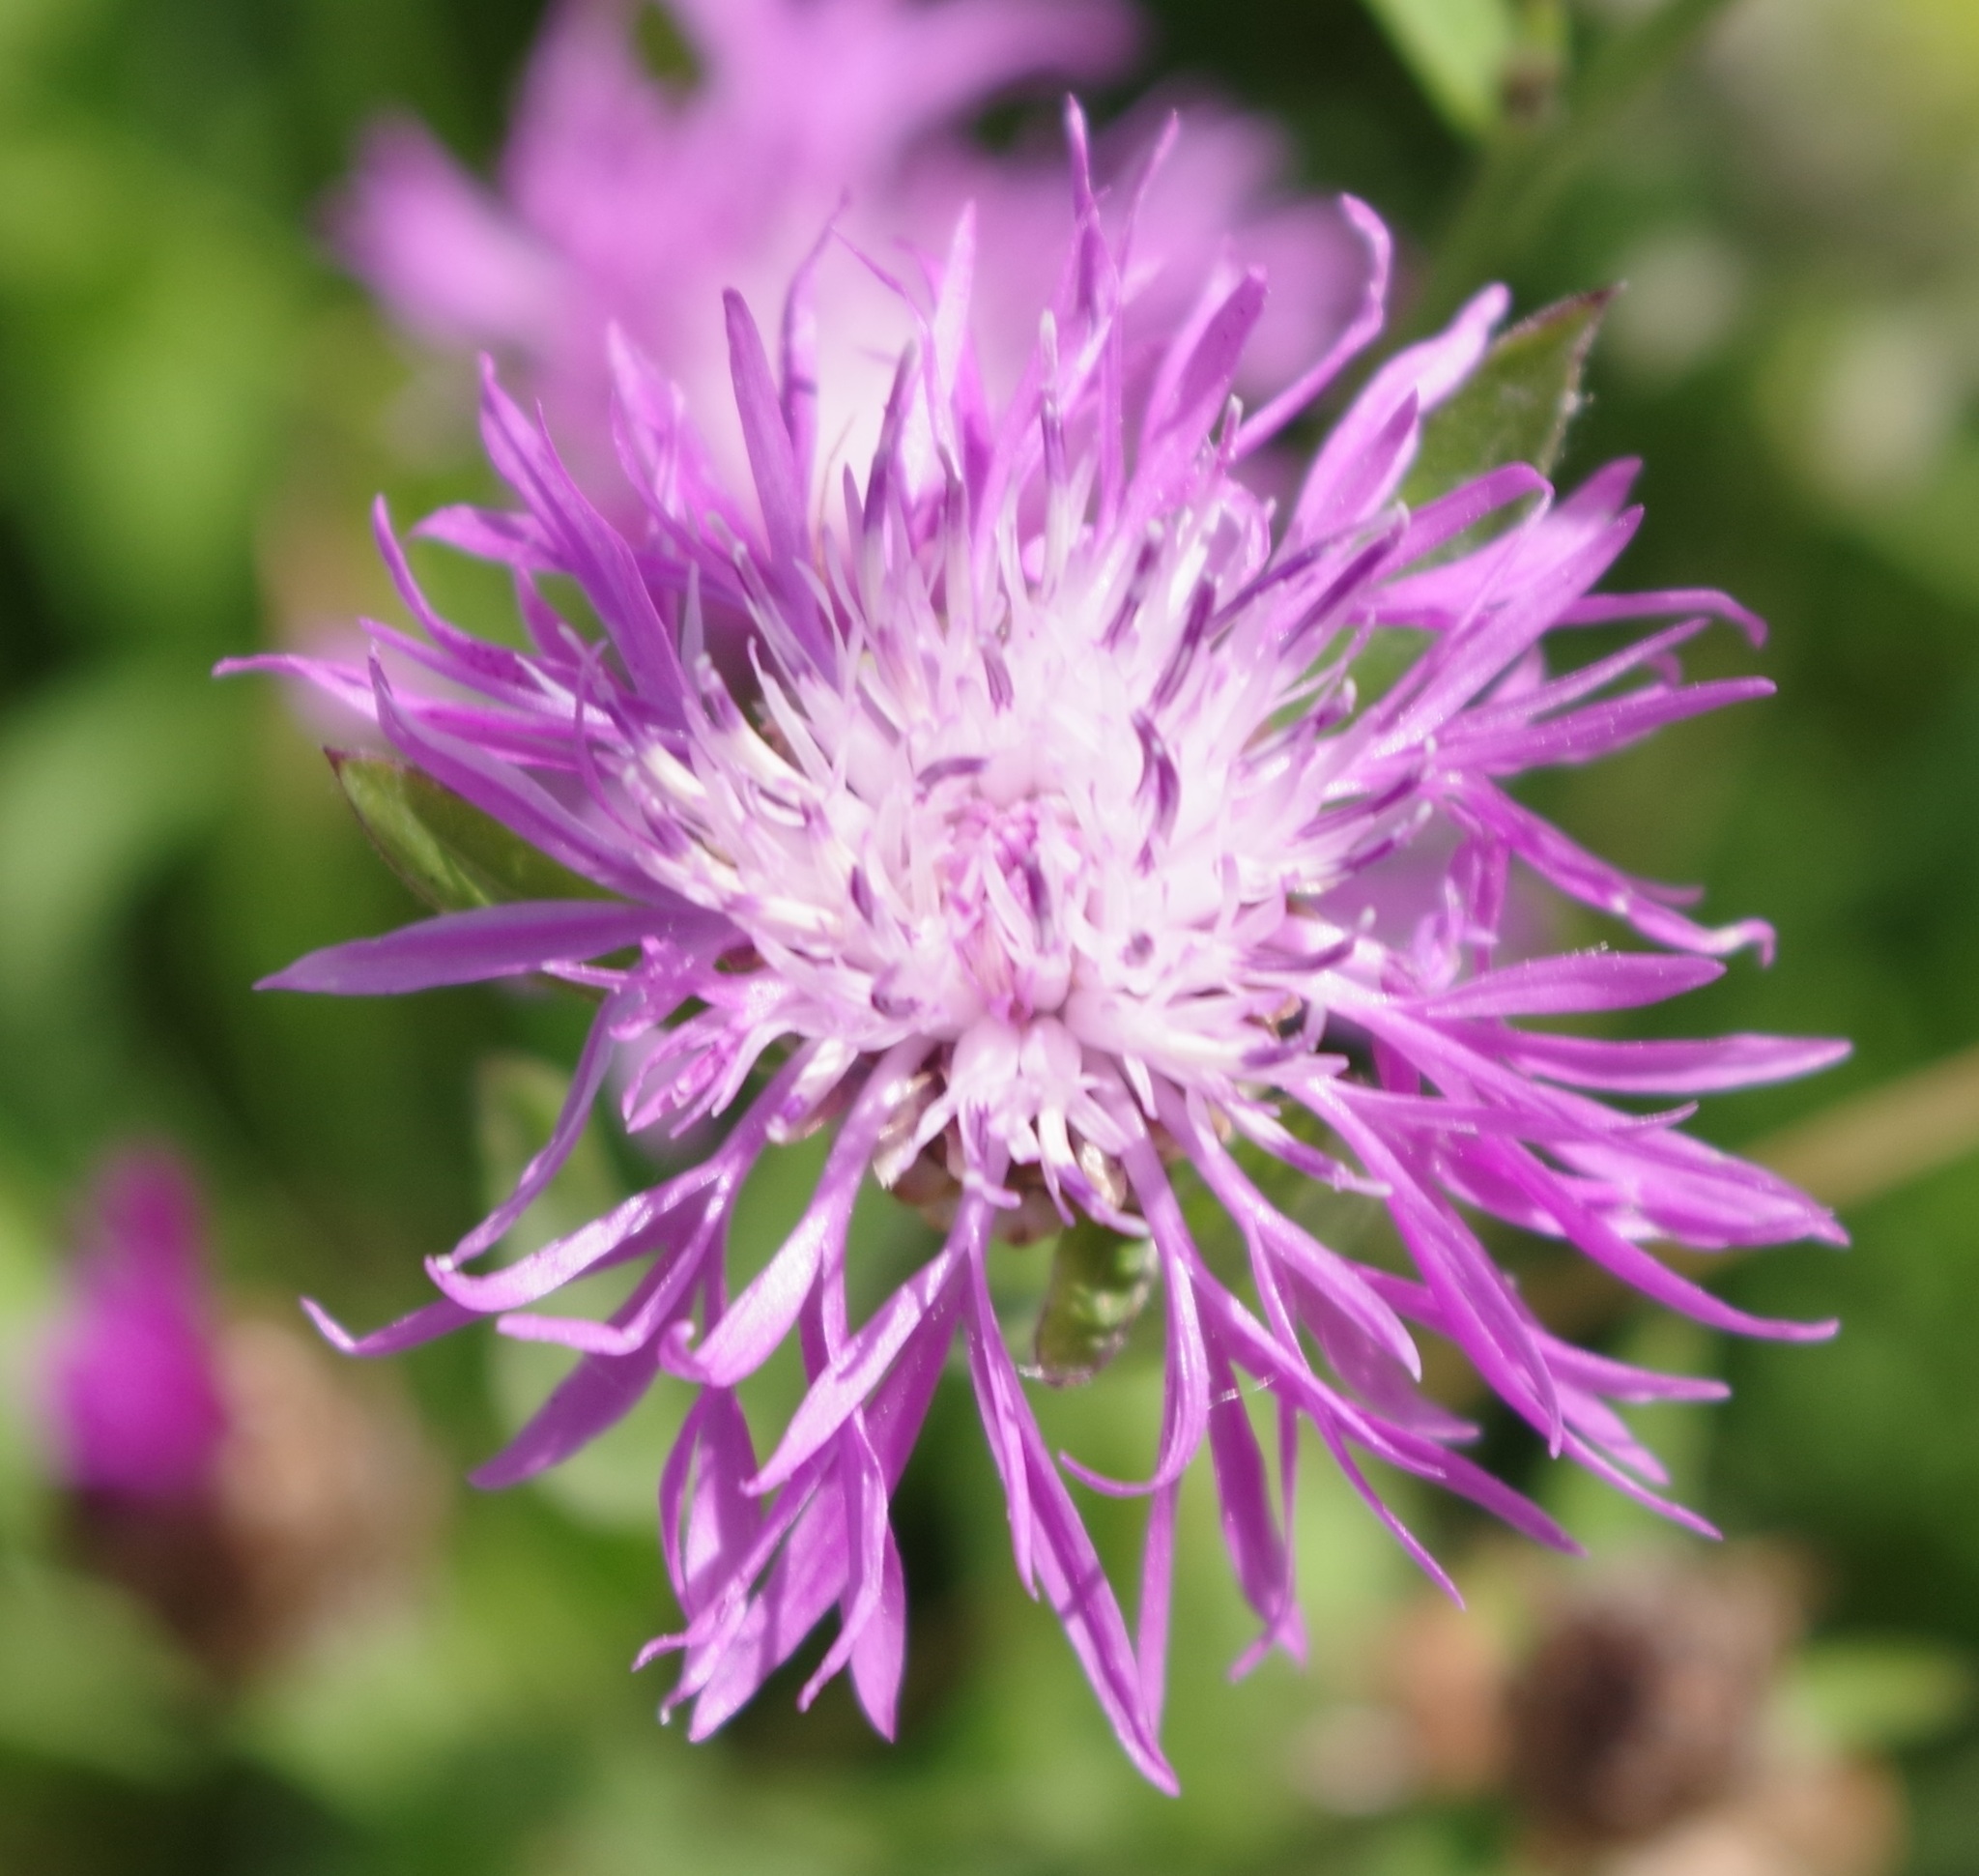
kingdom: Plantae
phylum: Tracheophyta
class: Magnoliopsida
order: Asterales
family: Asteraceae
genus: Centaurea
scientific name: Centaurea jacea
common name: Brown knapweed
